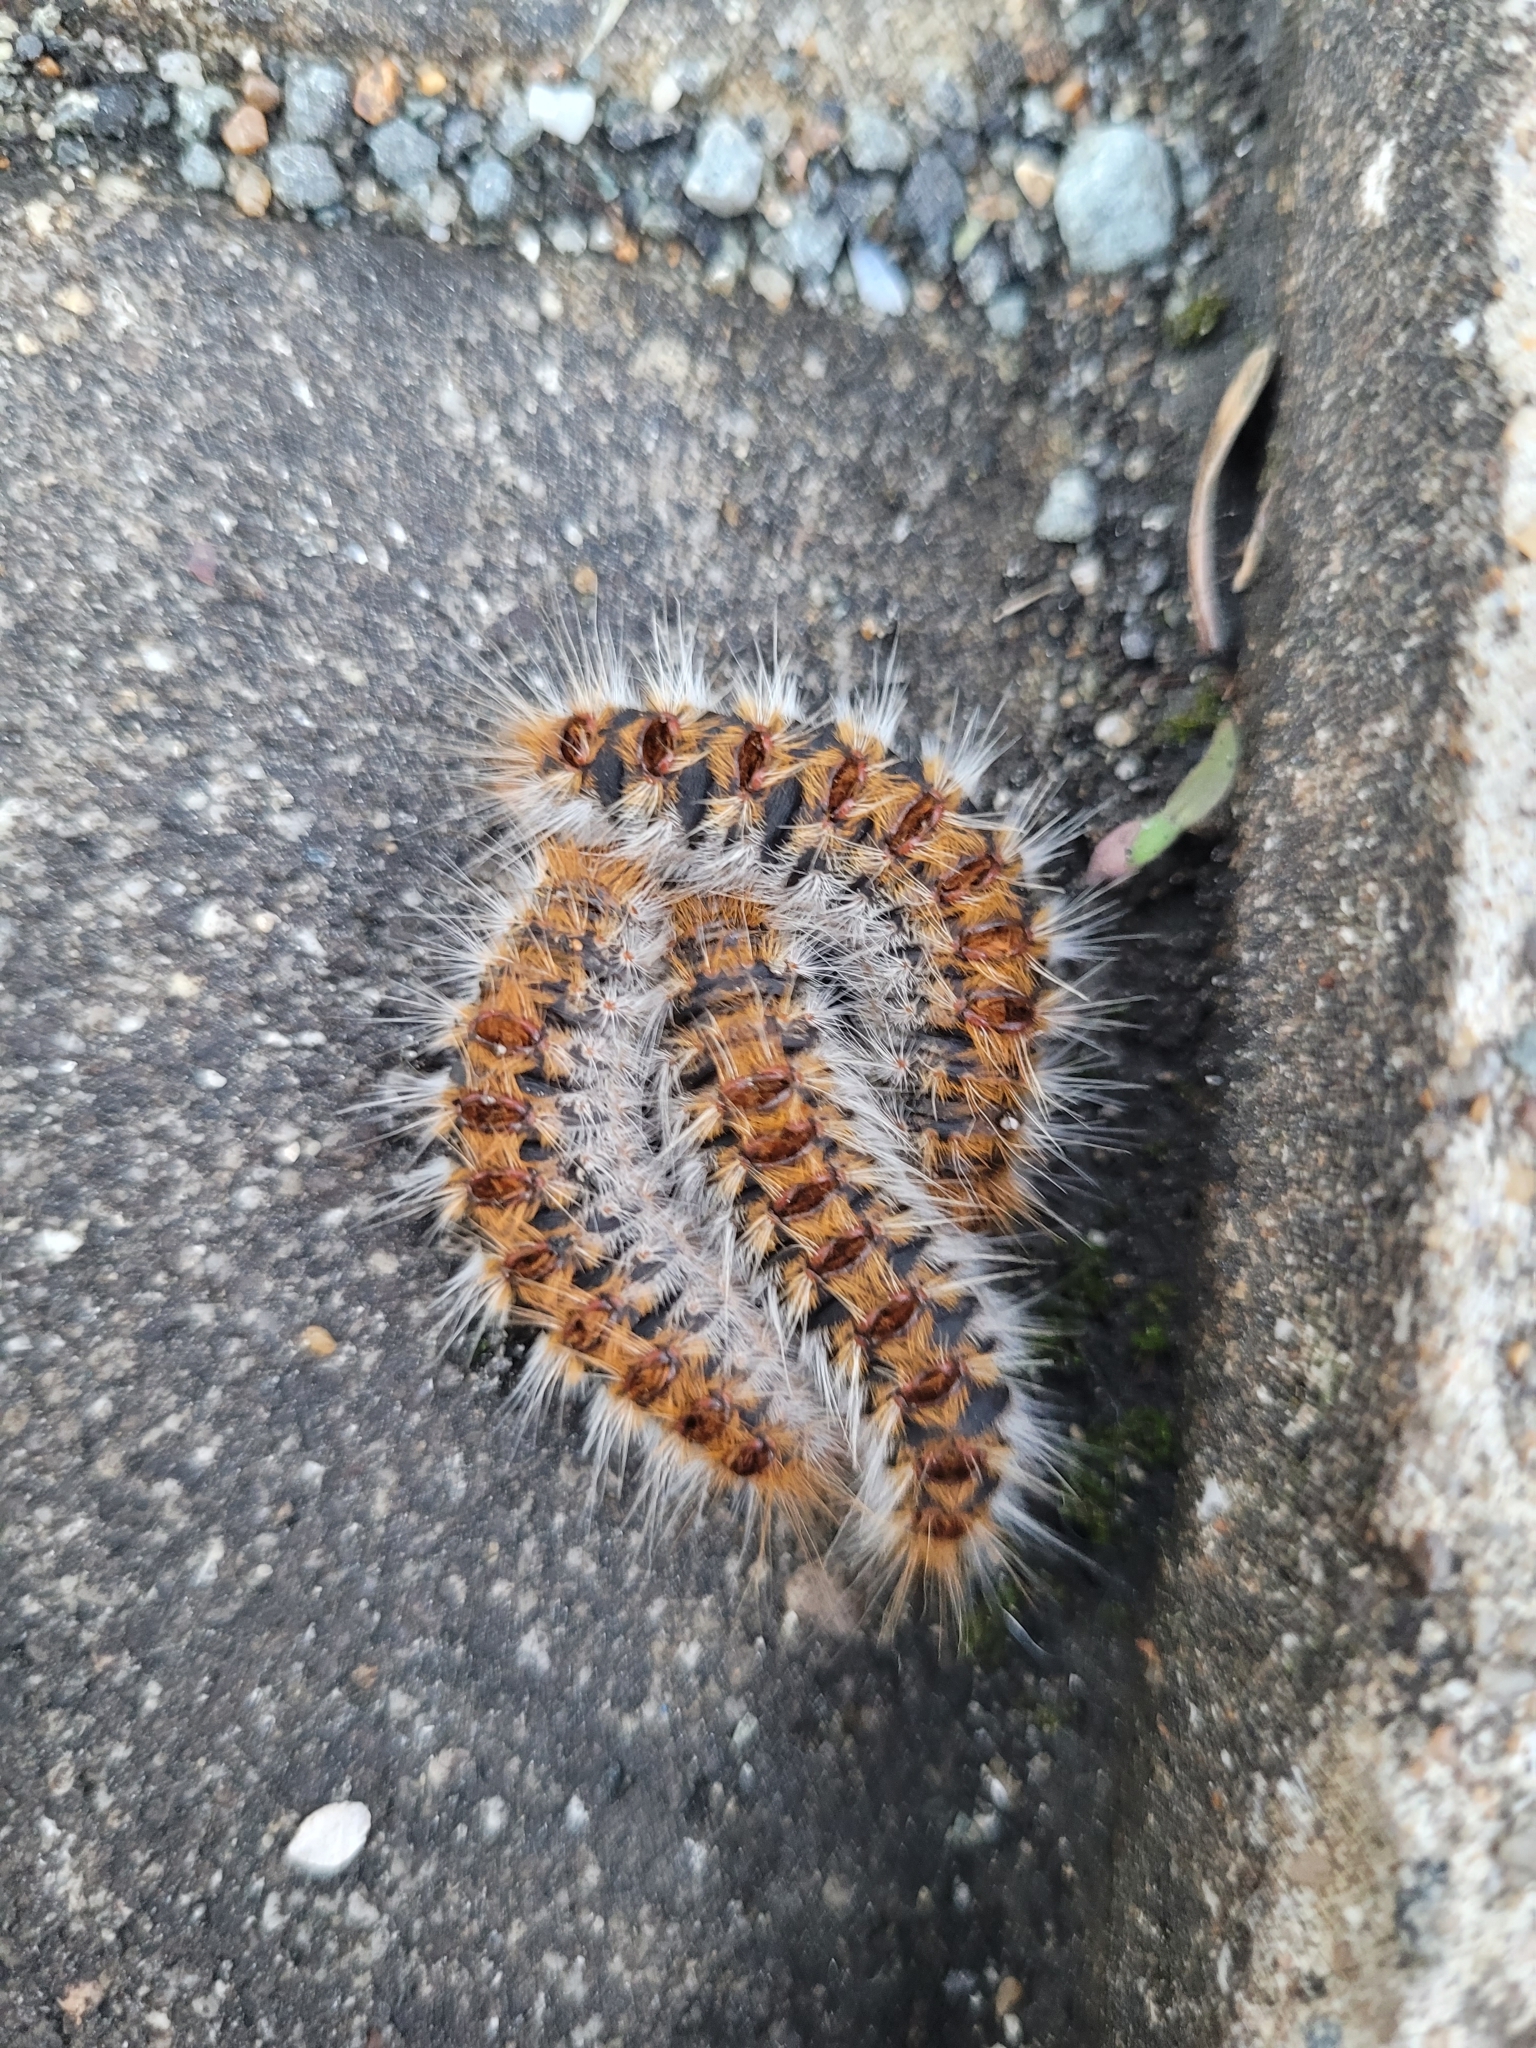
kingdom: Animalia
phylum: Arthropoda
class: Insecta
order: Lepidoptera
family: Notodontidae
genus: Thaumetopoea
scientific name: Thaumetopoea pityocampa
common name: Pine processionary
